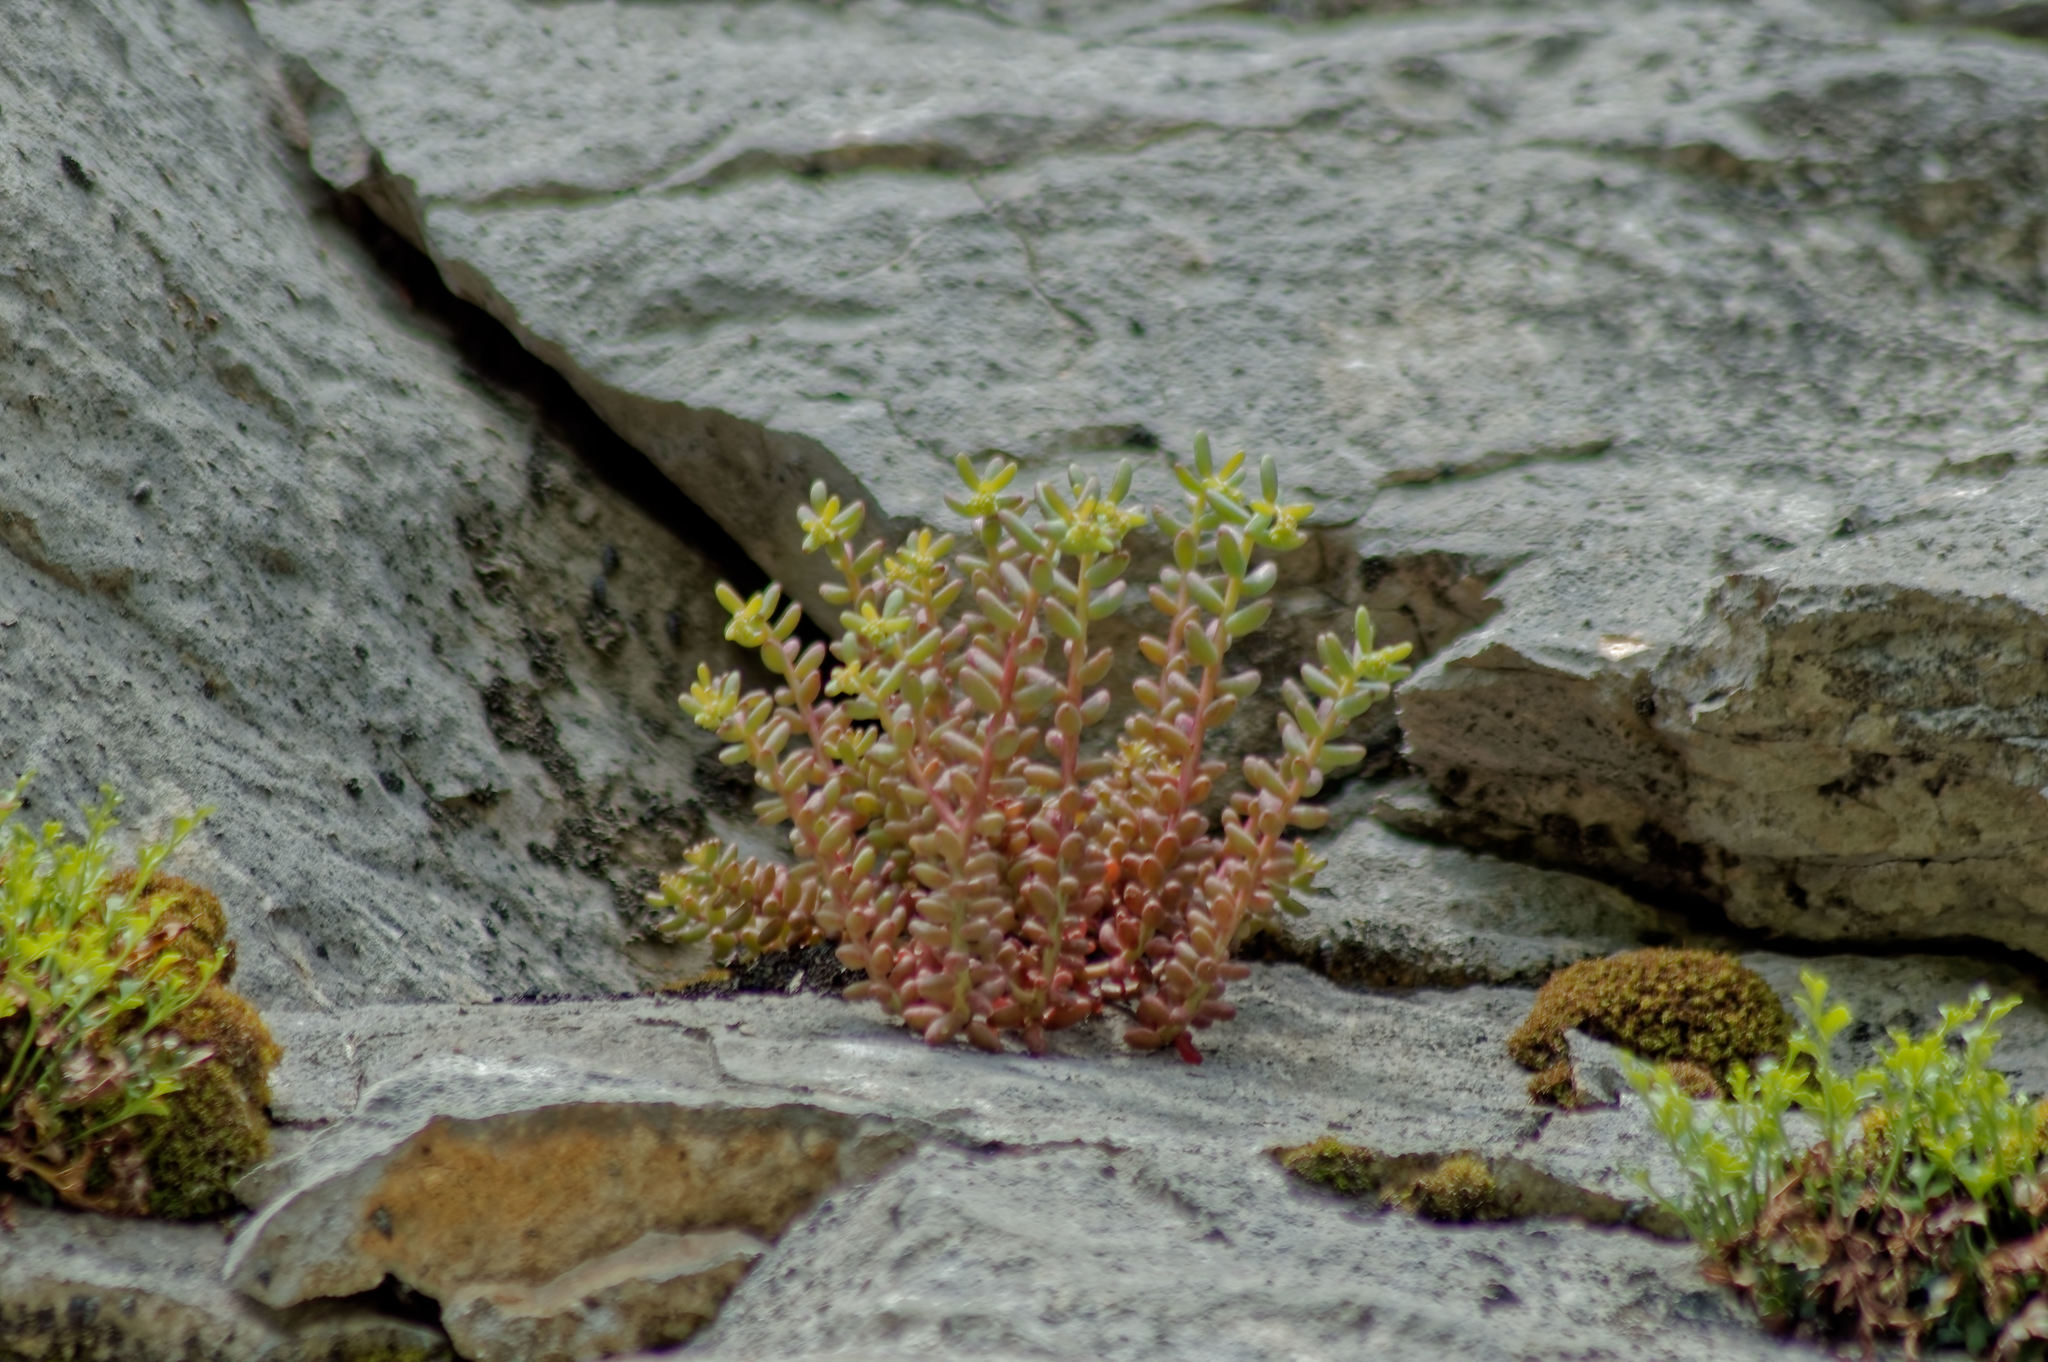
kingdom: Plantae
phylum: Tracheophyta
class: Magnoliopsida
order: Saxifragales
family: Crassulaceae
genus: Sedum
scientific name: Sedum album
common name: White stonecrop
